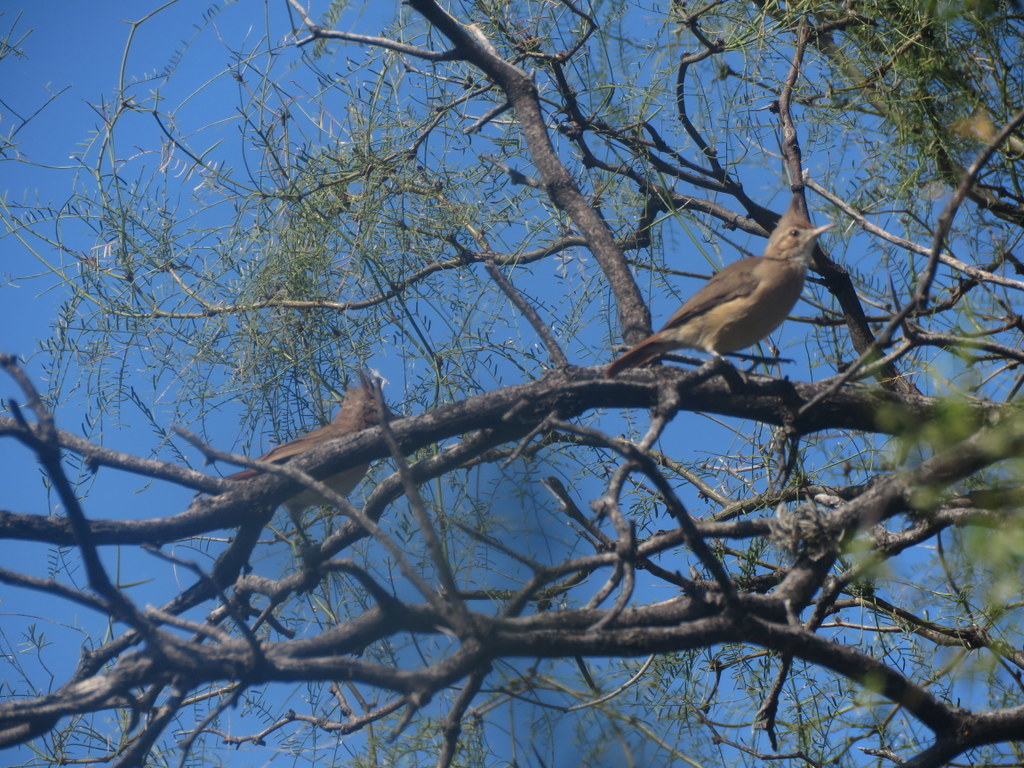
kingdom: Animalia
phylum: Chordata
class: Aves
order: Passeriformes
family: Furnariidae
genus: Furnarius
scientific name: Furnarius cristatus
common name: Crested hornero
